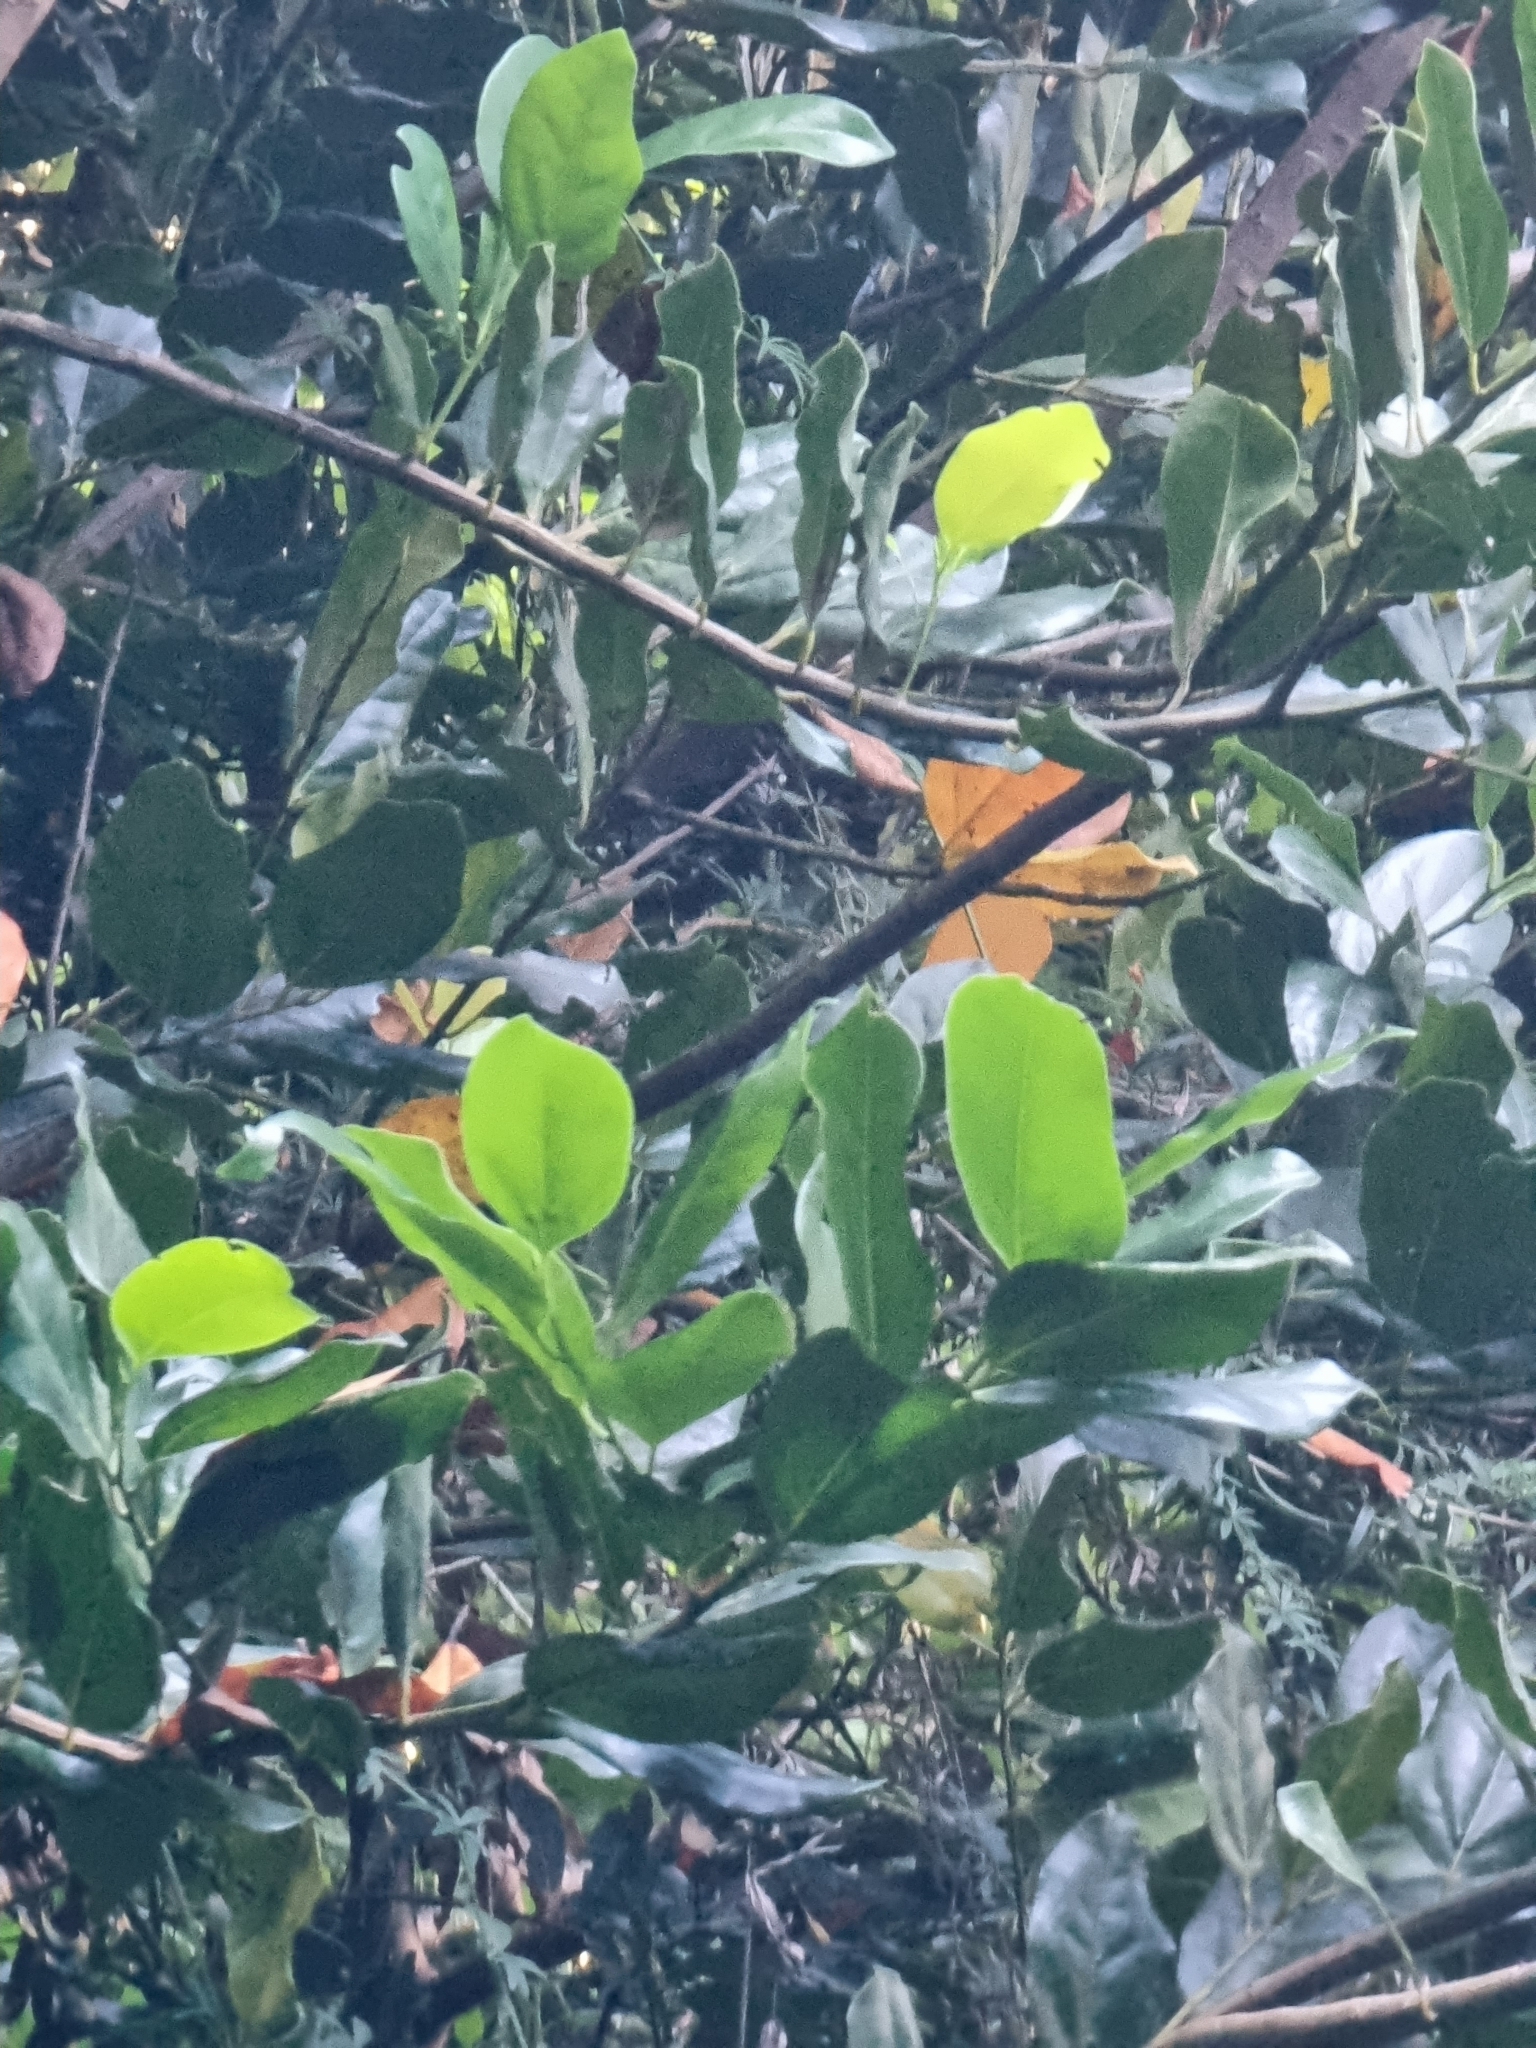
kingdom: Plantae
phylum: Tracheophyta
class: Magnoliopsida
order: Laurales
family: Lauraceae
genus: Mespilodaphne
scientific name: Mespilodaphne foetens
